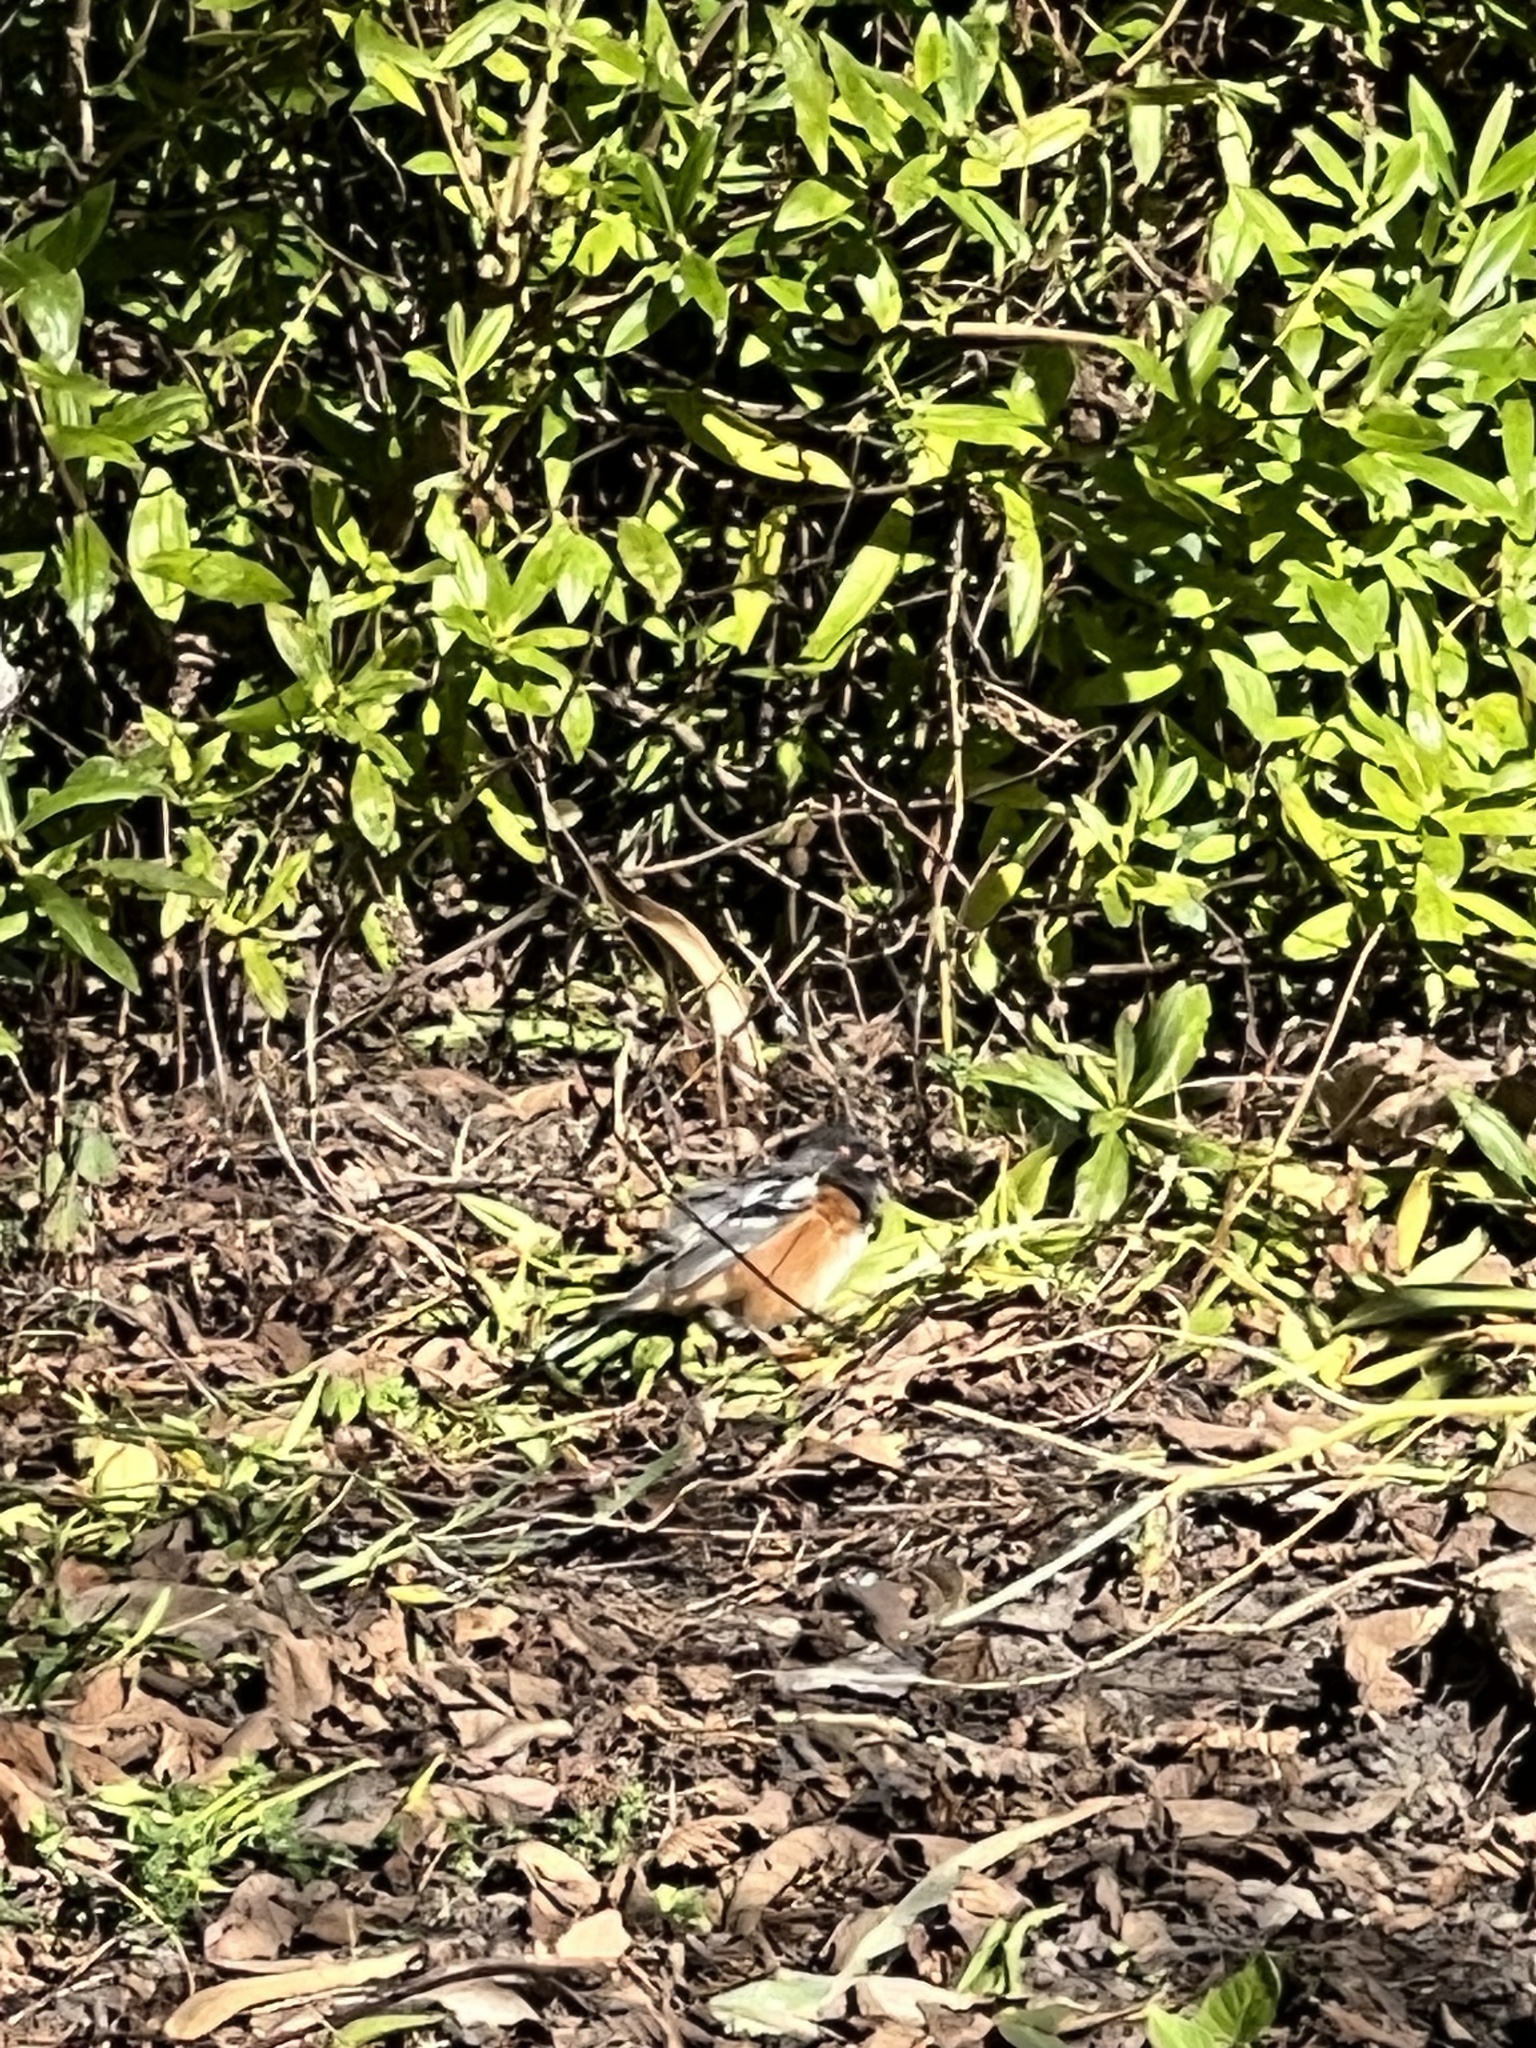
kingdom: Animalia
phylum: Chordata
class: Aves
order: Passeriformes
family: Passerellidae
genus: Pipilo
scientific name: Pipilo maculatus
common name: Spotted towhee
